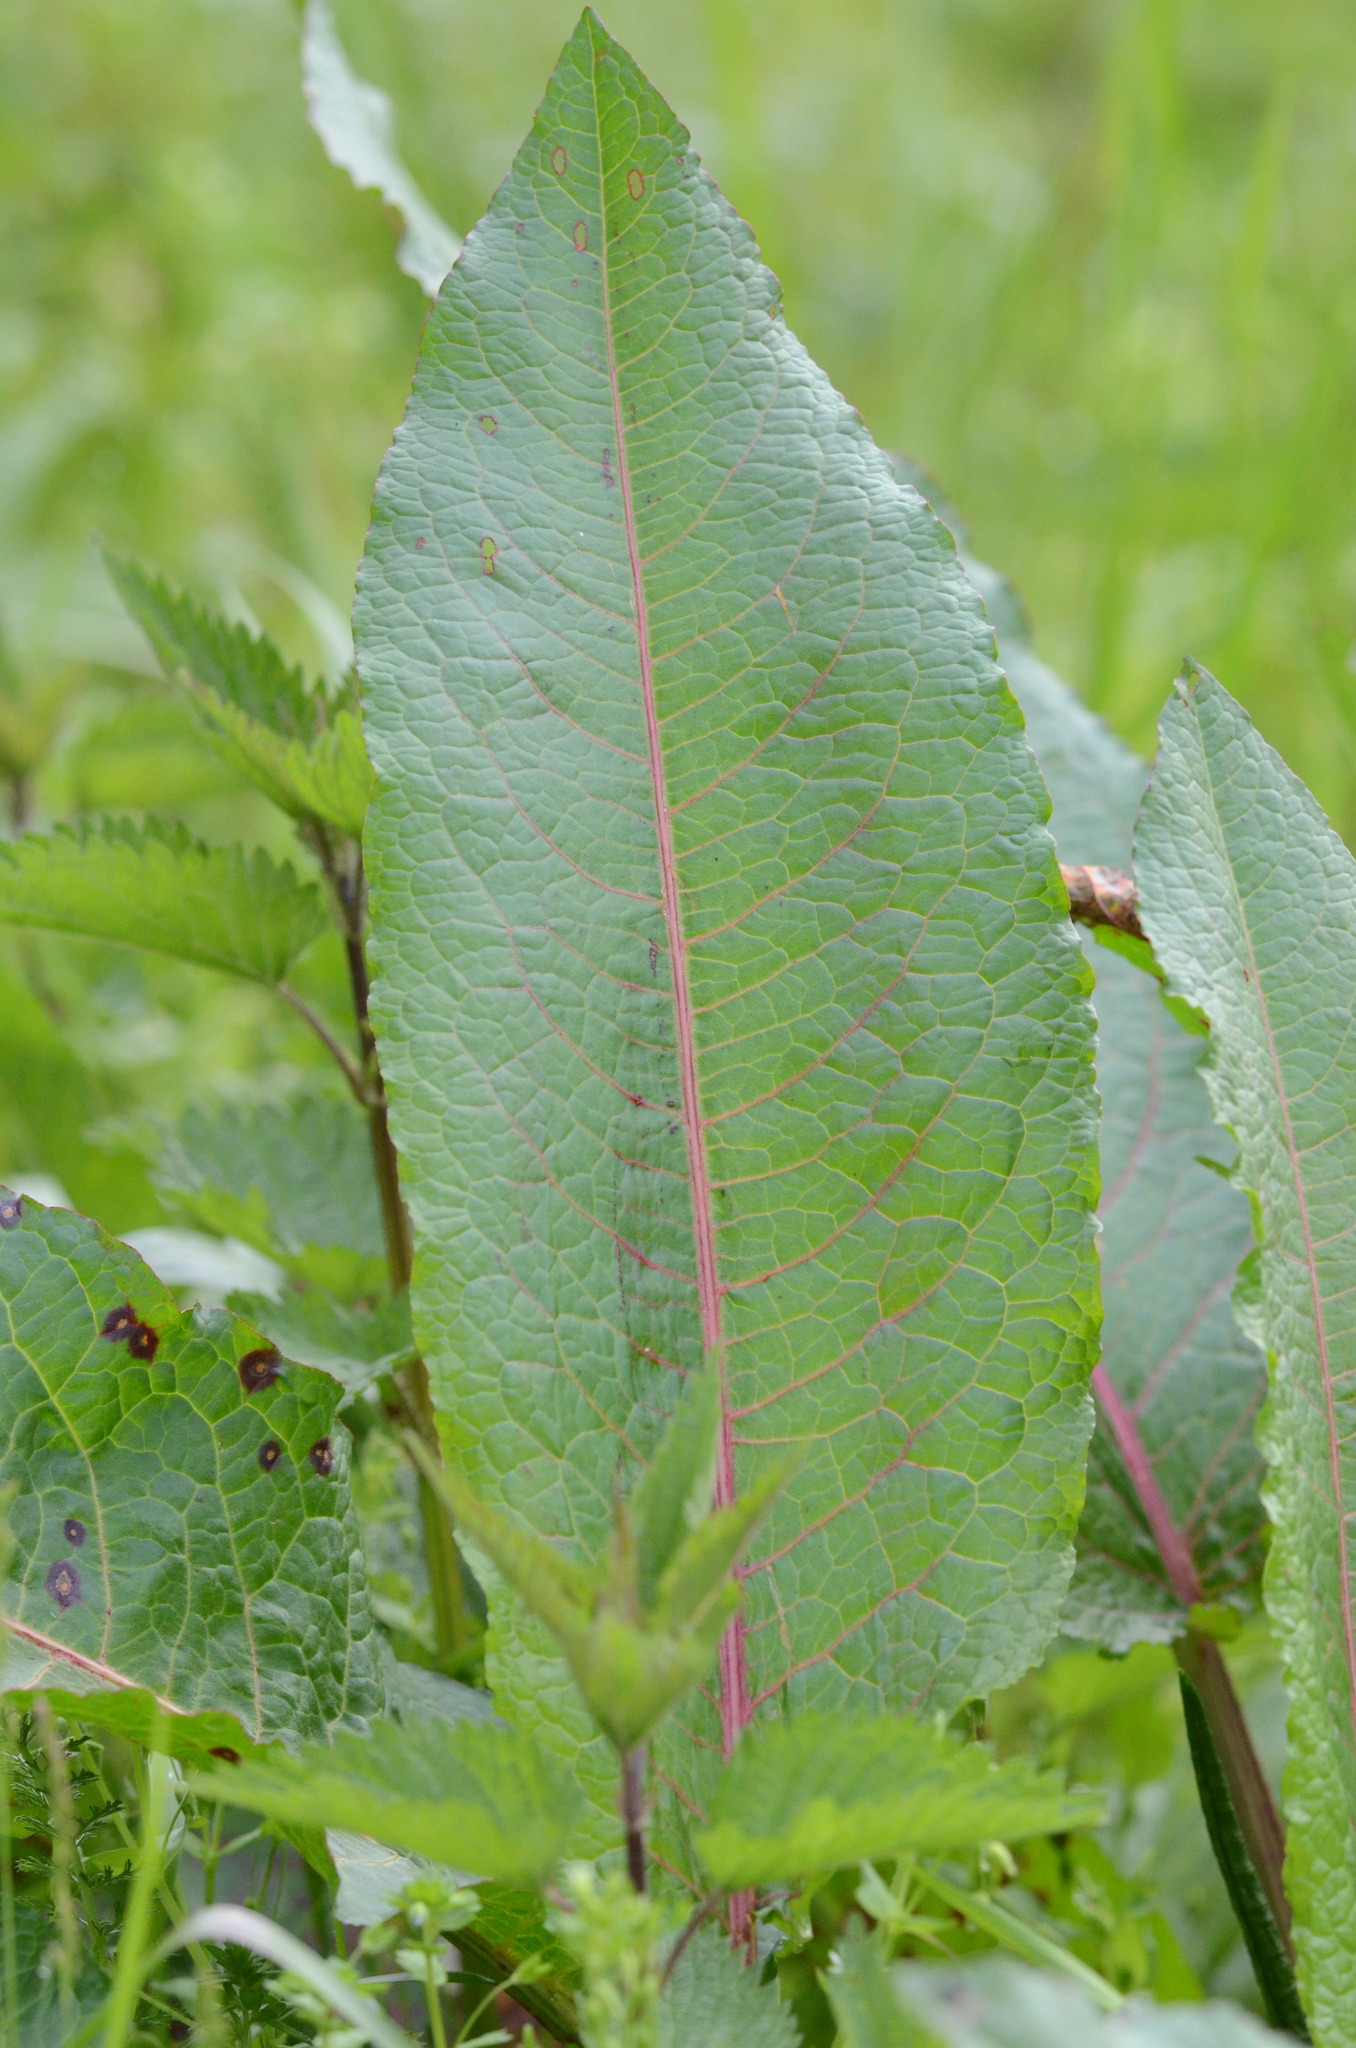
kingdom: Plantae
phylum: Tracheophyta
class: Magnoliopsida
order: Caryophyllales
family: Polygonaceae
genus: Rumex
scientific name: Rumex obtusifolius
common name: Bitter dock
